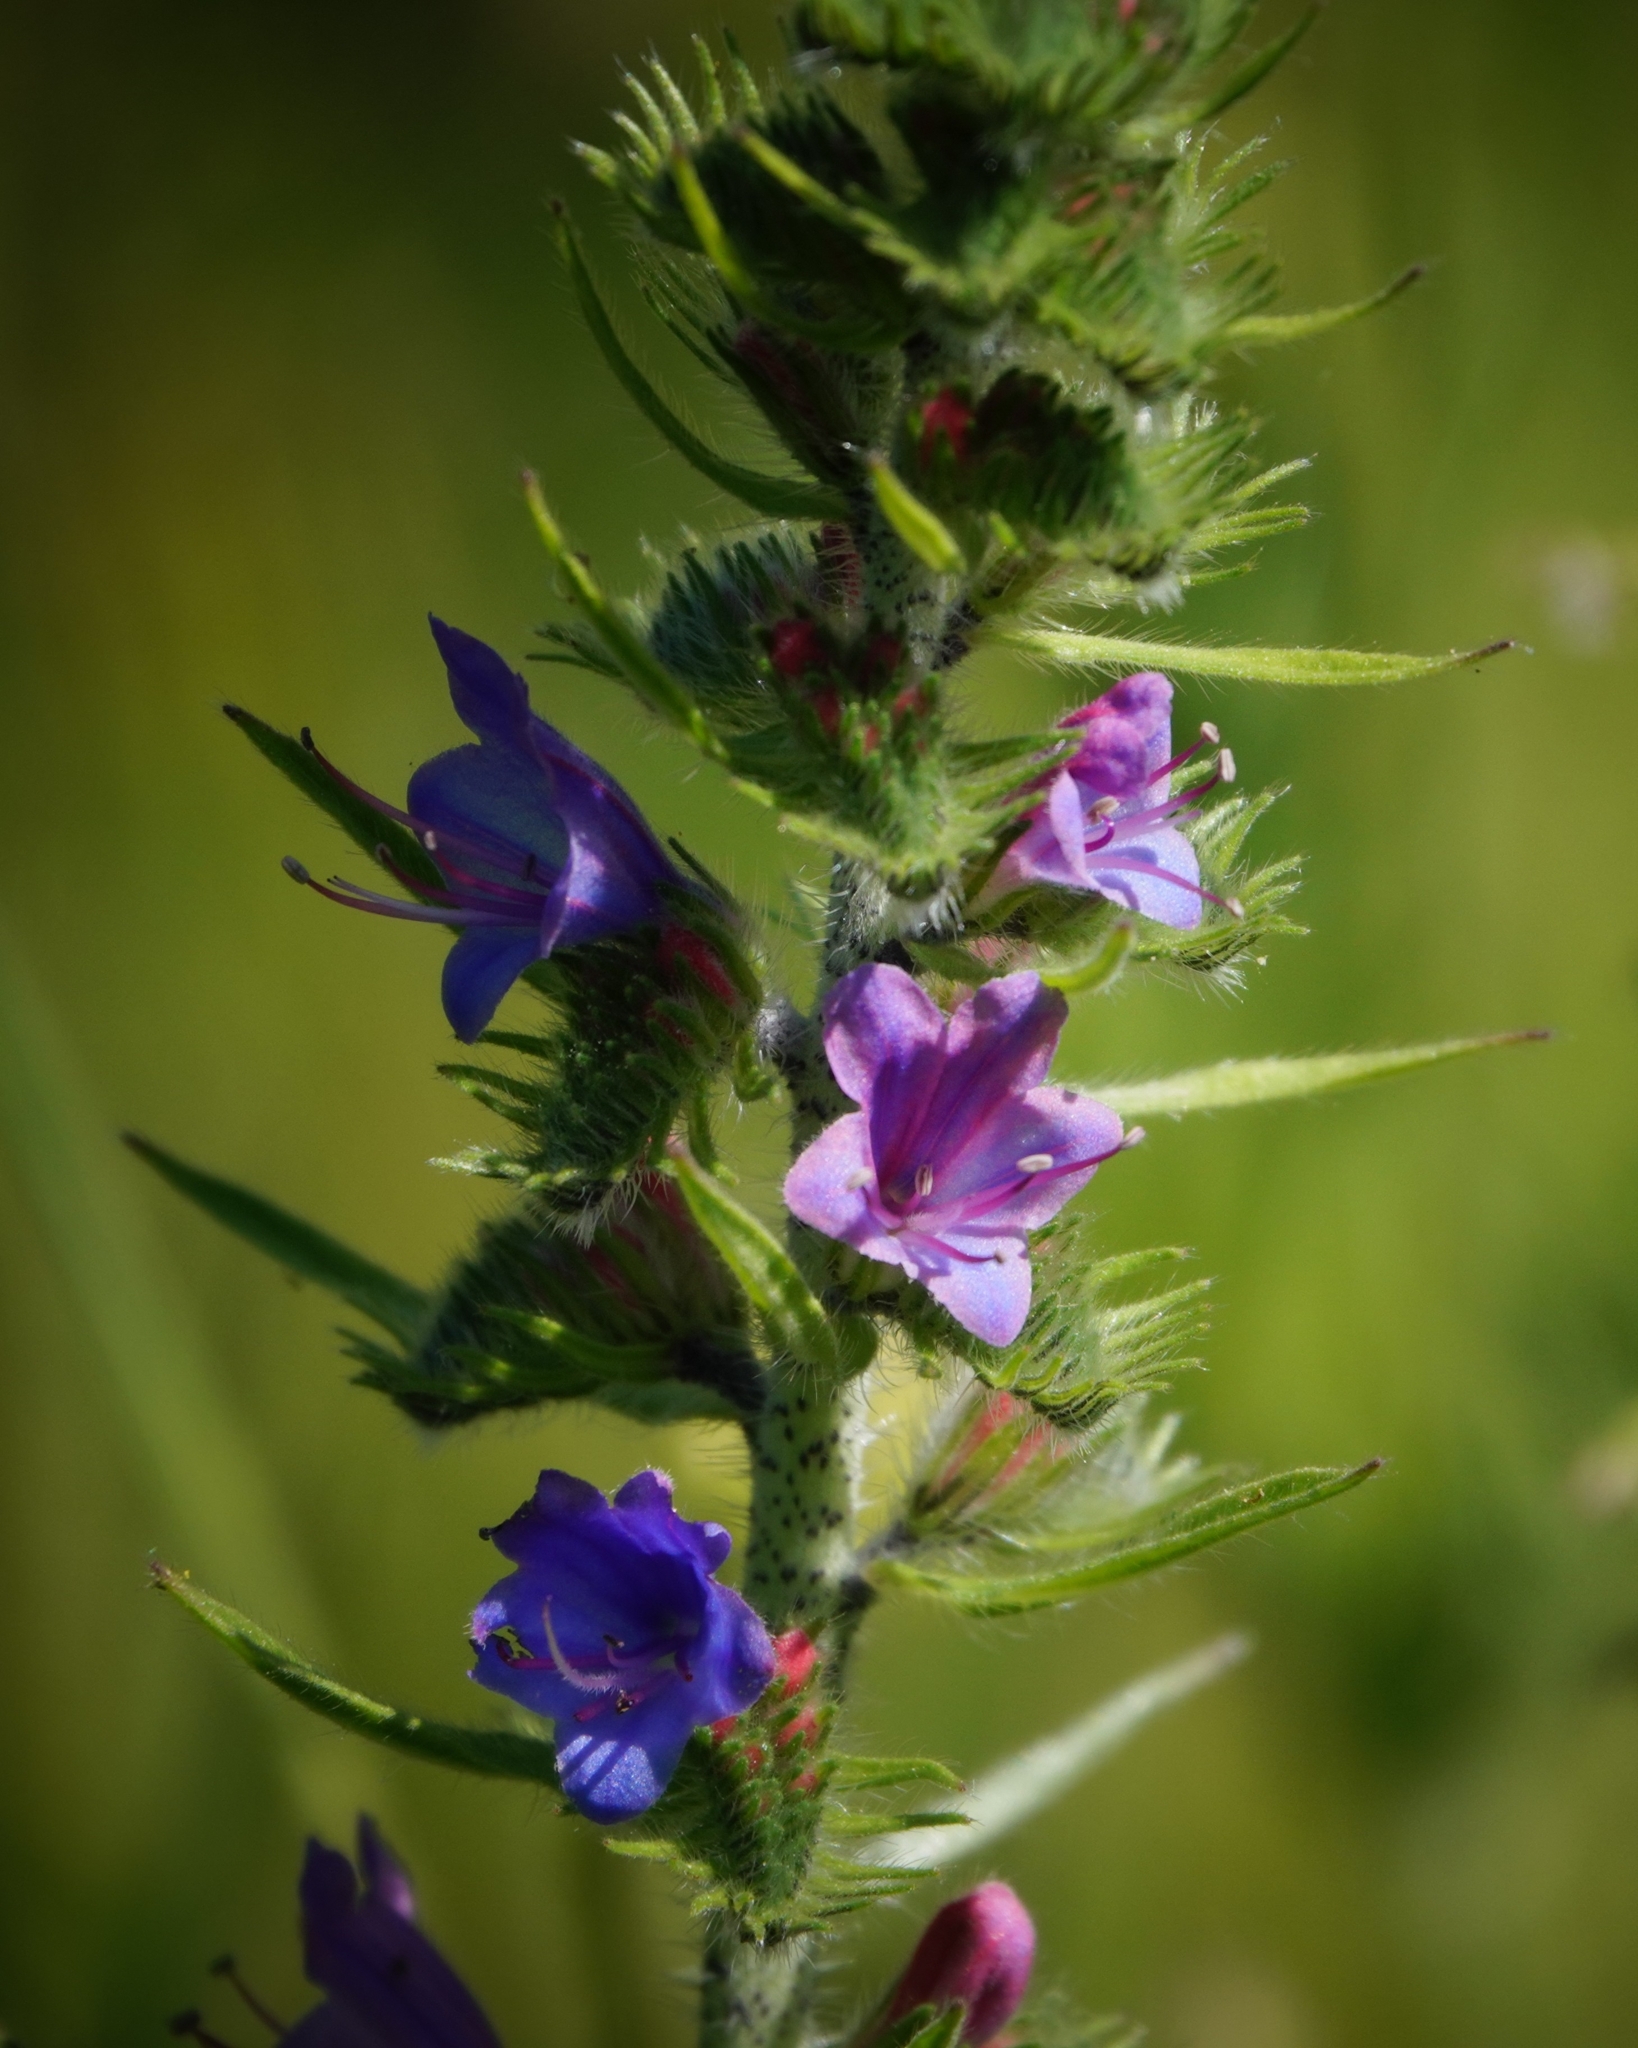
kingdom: Plantae
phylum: Tracheophyta
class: Magnoliopsida
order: Boraginales
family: Boraginaceae
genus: Echium
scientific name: Echium vulgare
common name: Common viper's bugloss
